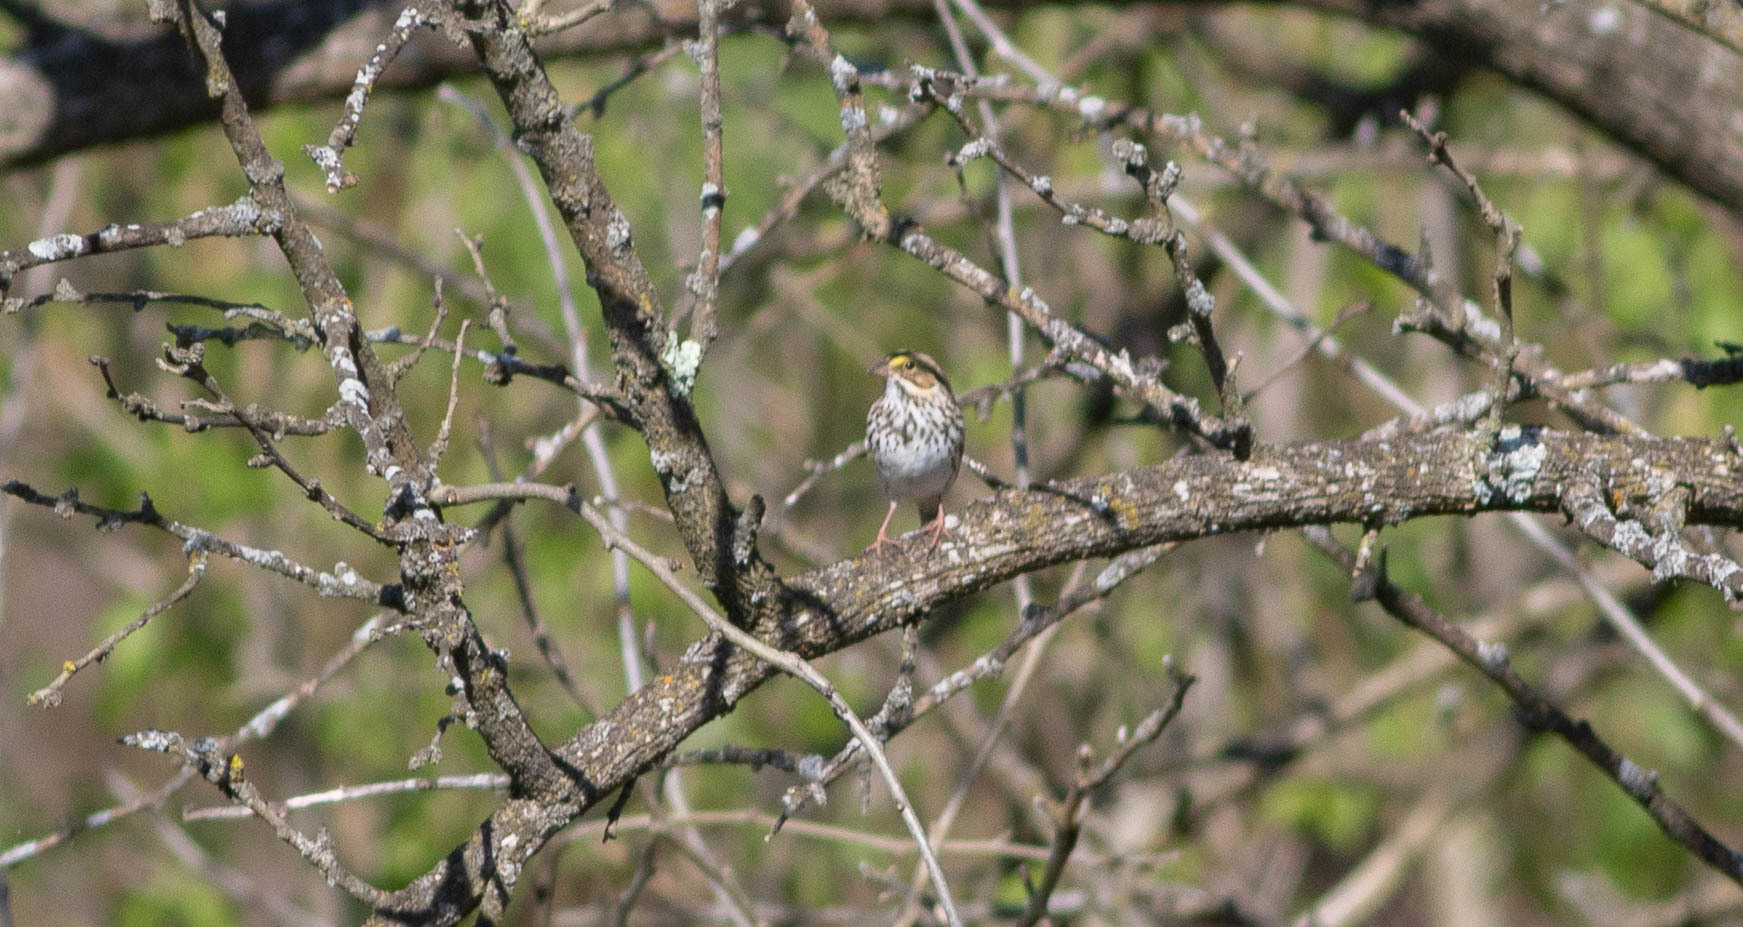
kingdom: Animalia
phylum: Chordata
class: Aves
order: Passeriformes
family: Passerellidae
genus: Passerculus
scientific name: Passerculus sandwichensis
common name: Savannah sparrow
